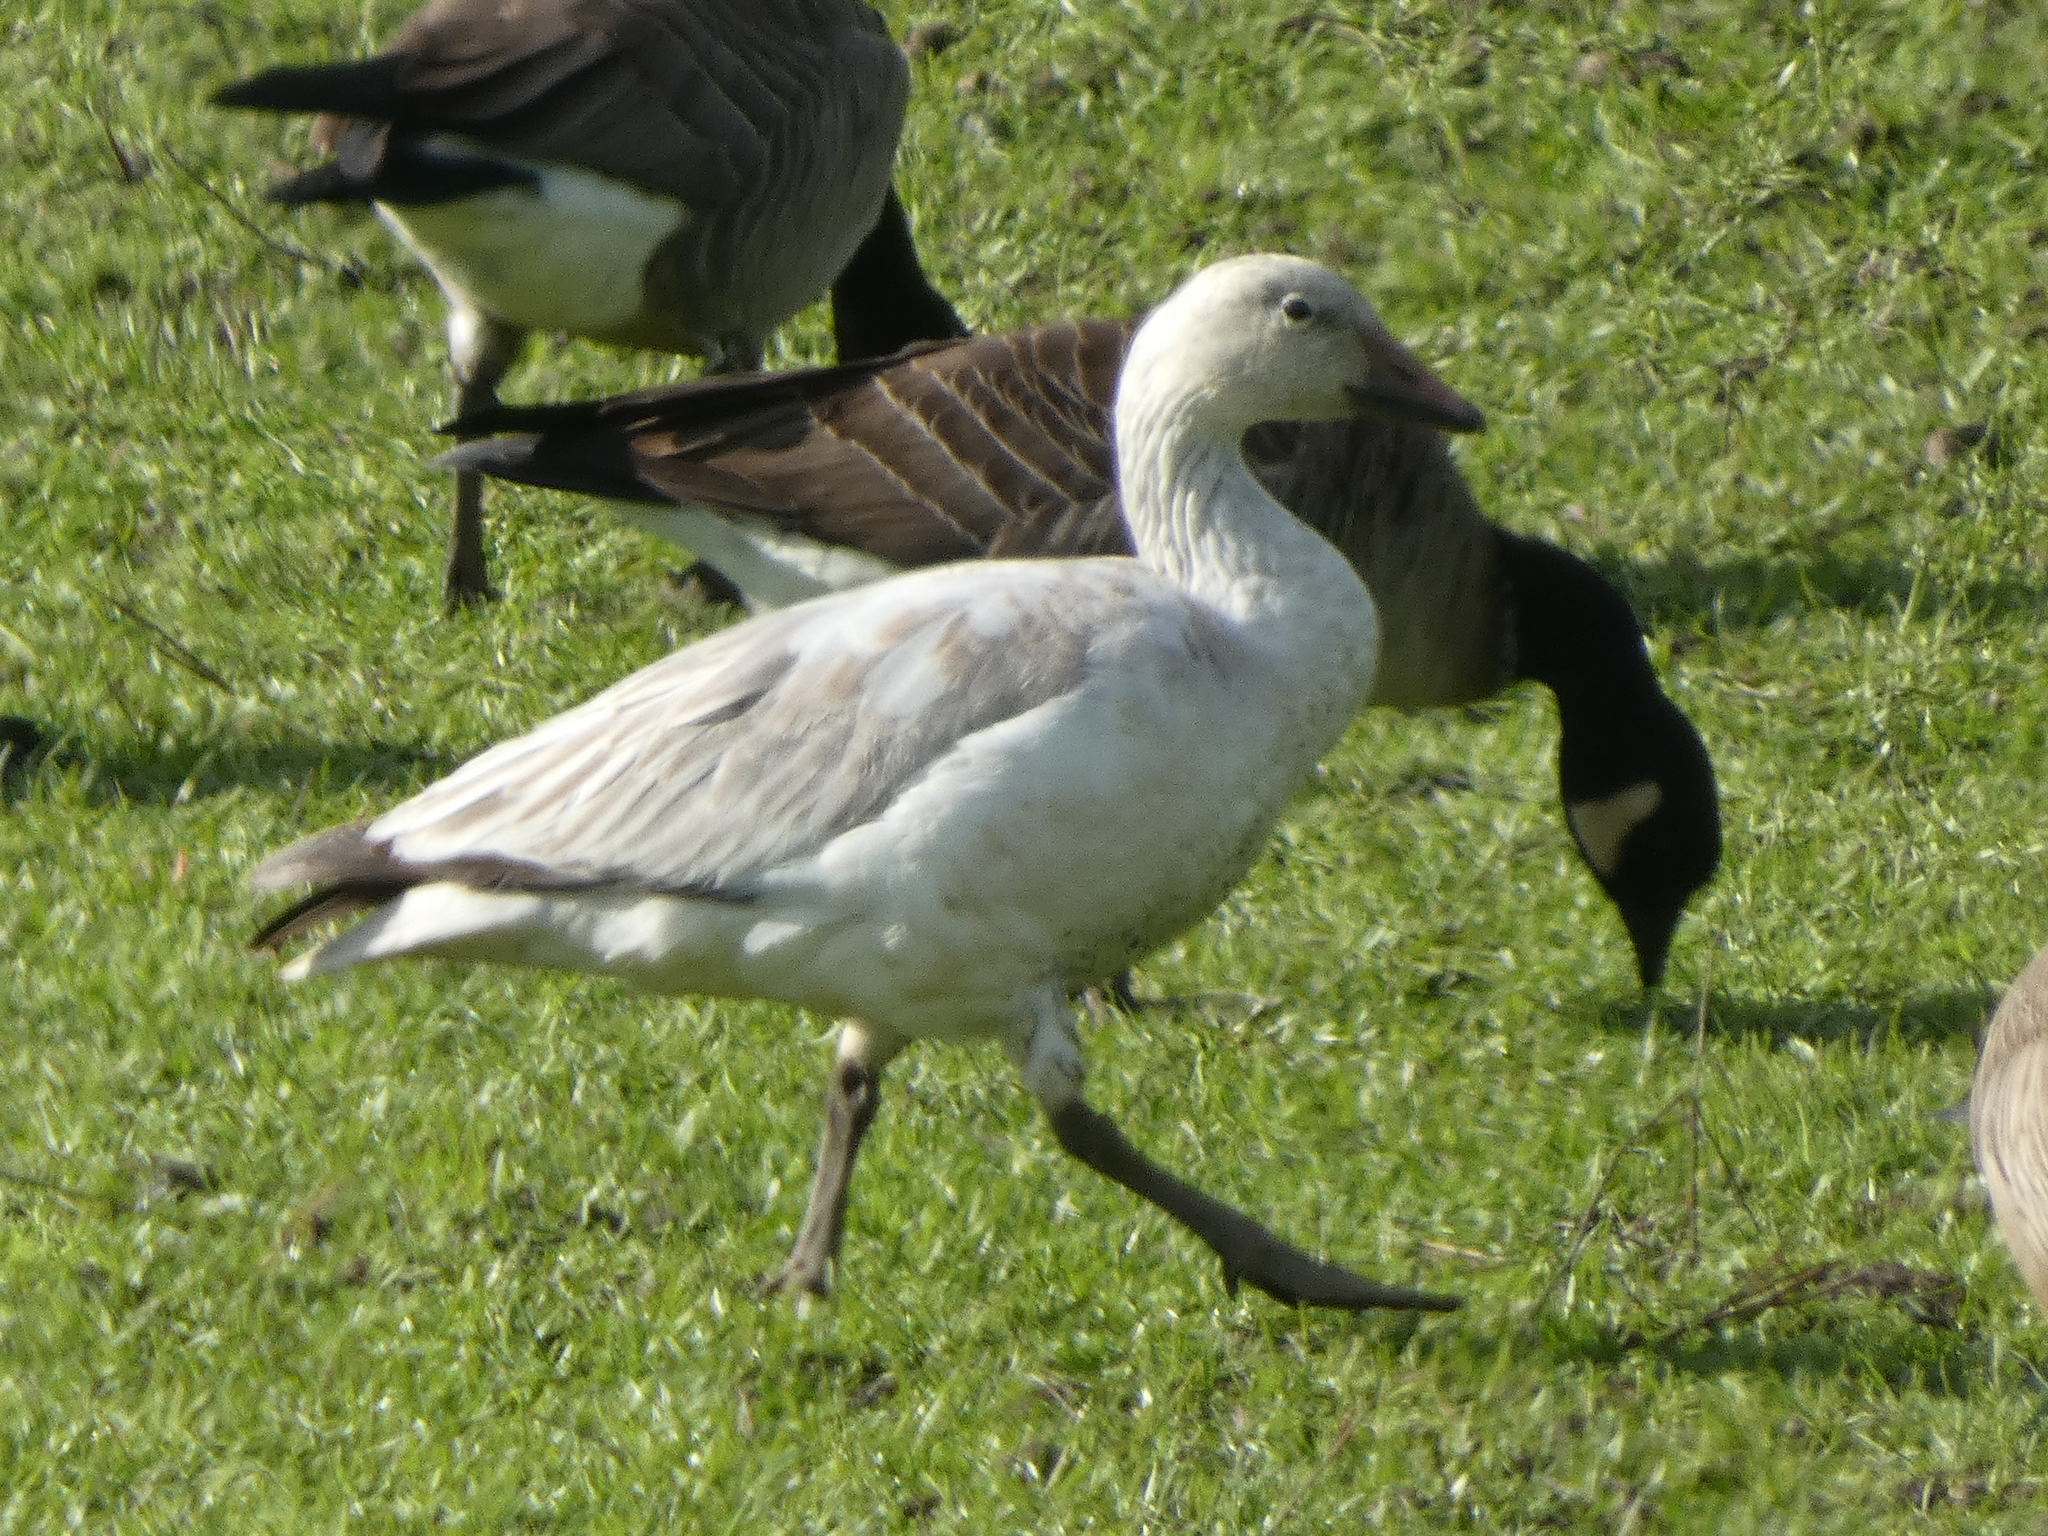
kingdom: Animalia
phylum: Chordata
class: Aves
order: Anseriformes
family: Anatidae
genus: Anser
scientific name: Anser caerulescens
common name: Snow goose
